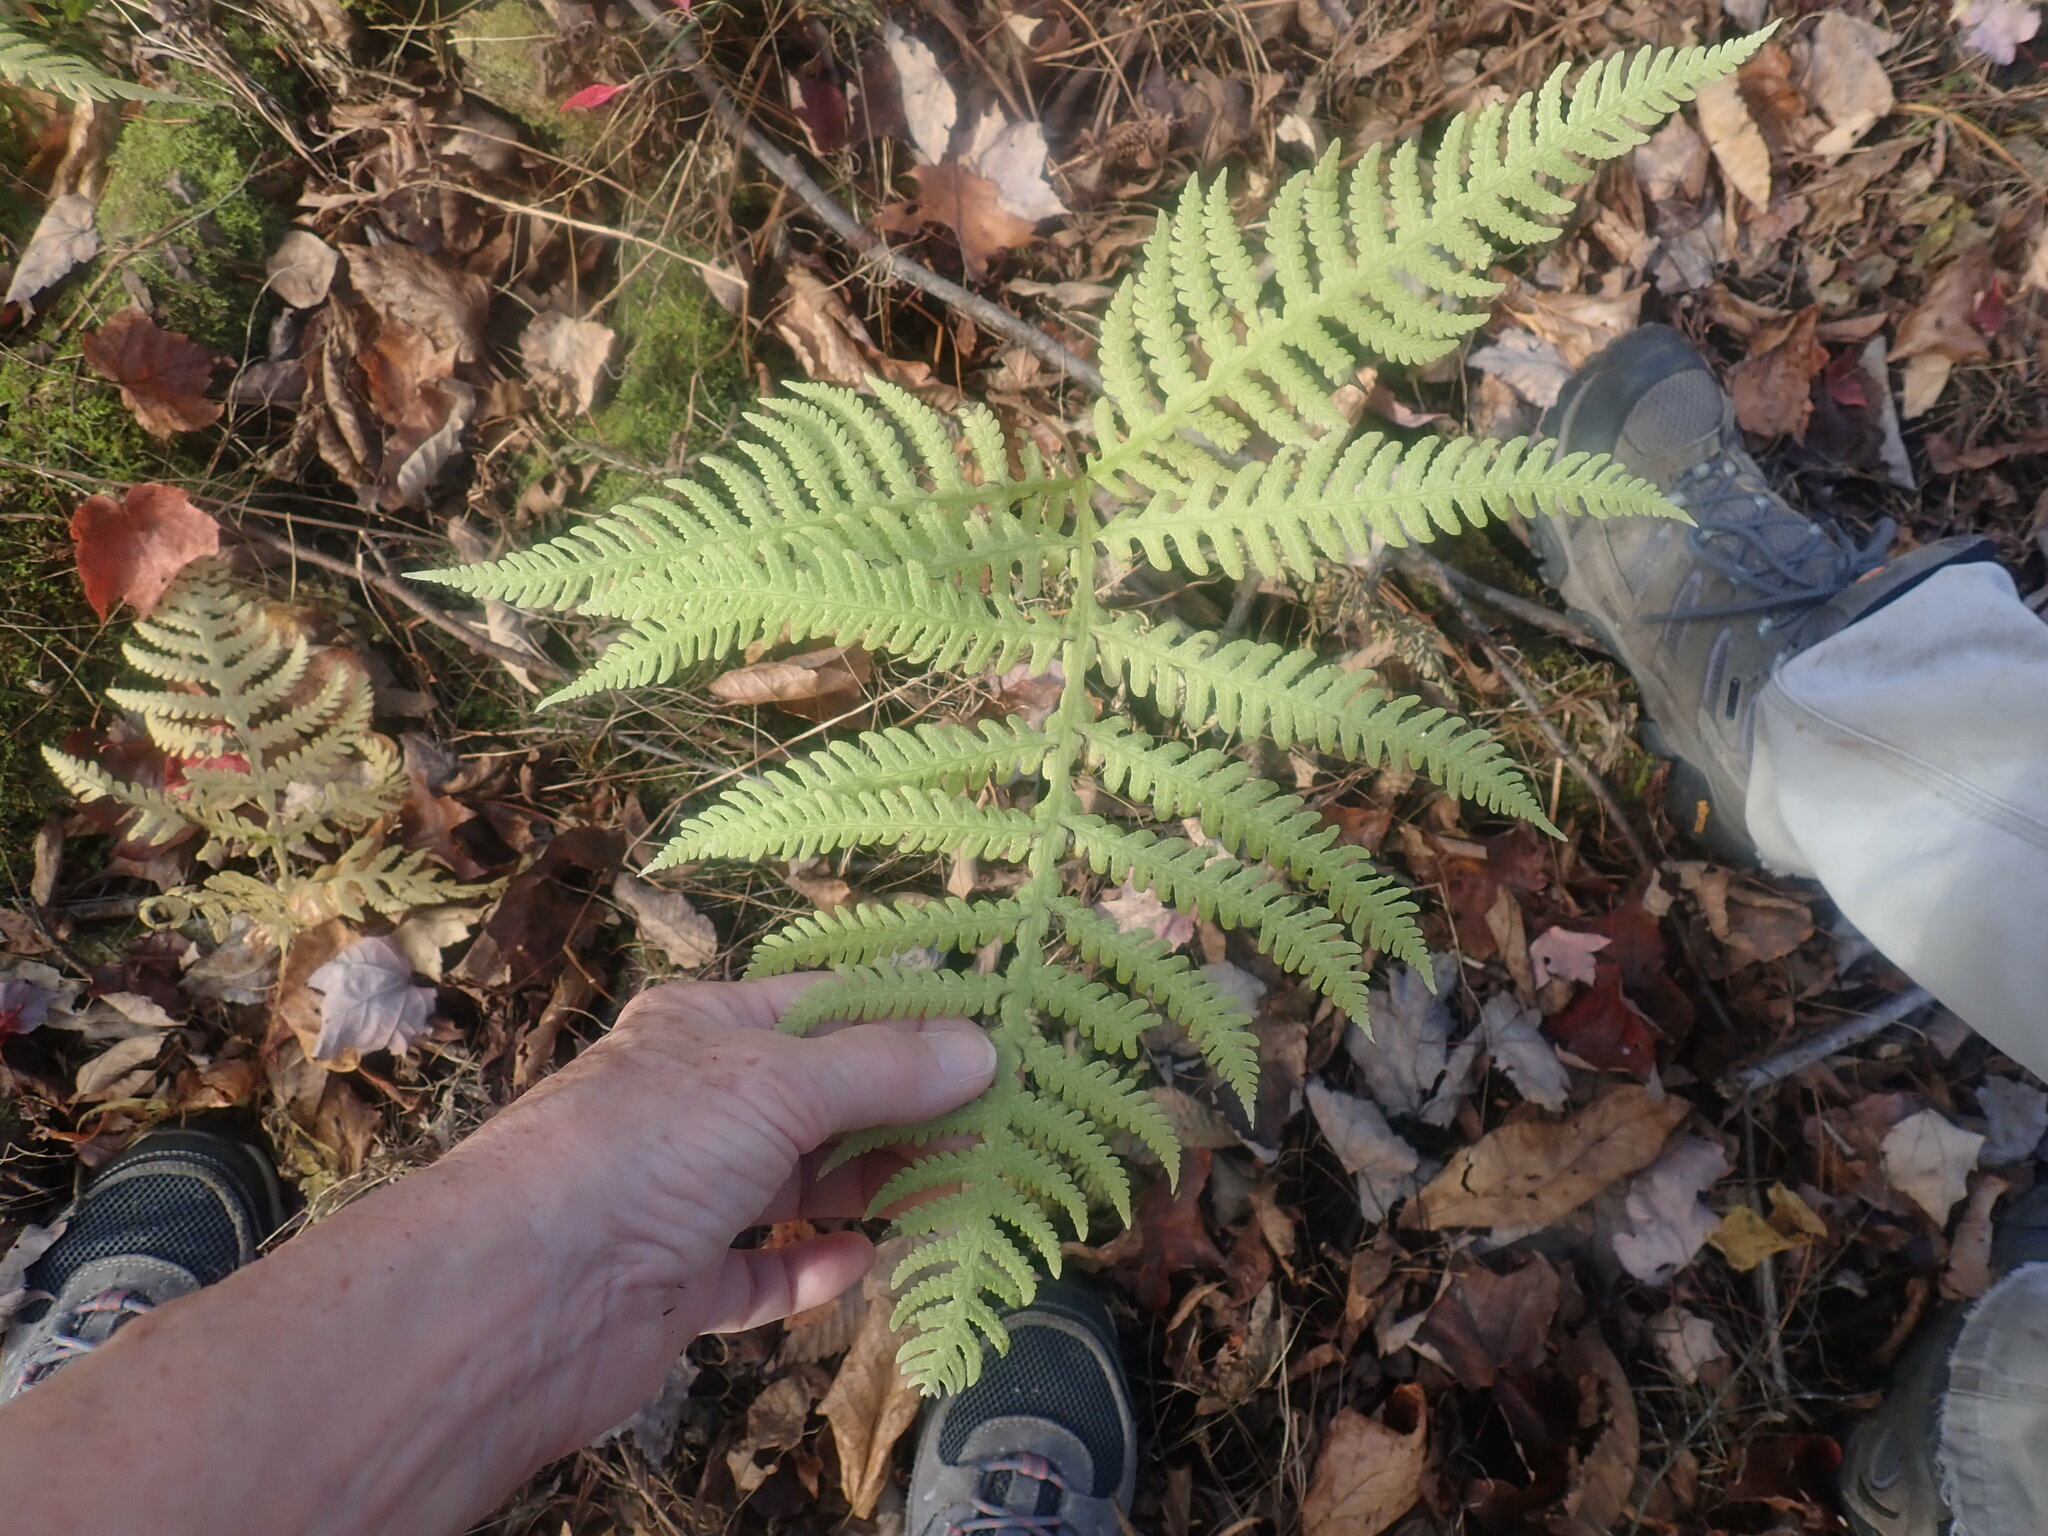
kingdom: Plantae
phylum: Tracheophyta
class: Polypodiopsida
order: Polypodiales
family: Thelypteridaceae
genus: Phegopteris
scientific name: Phegopteris hexagonoptera
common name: Broad beech fern
